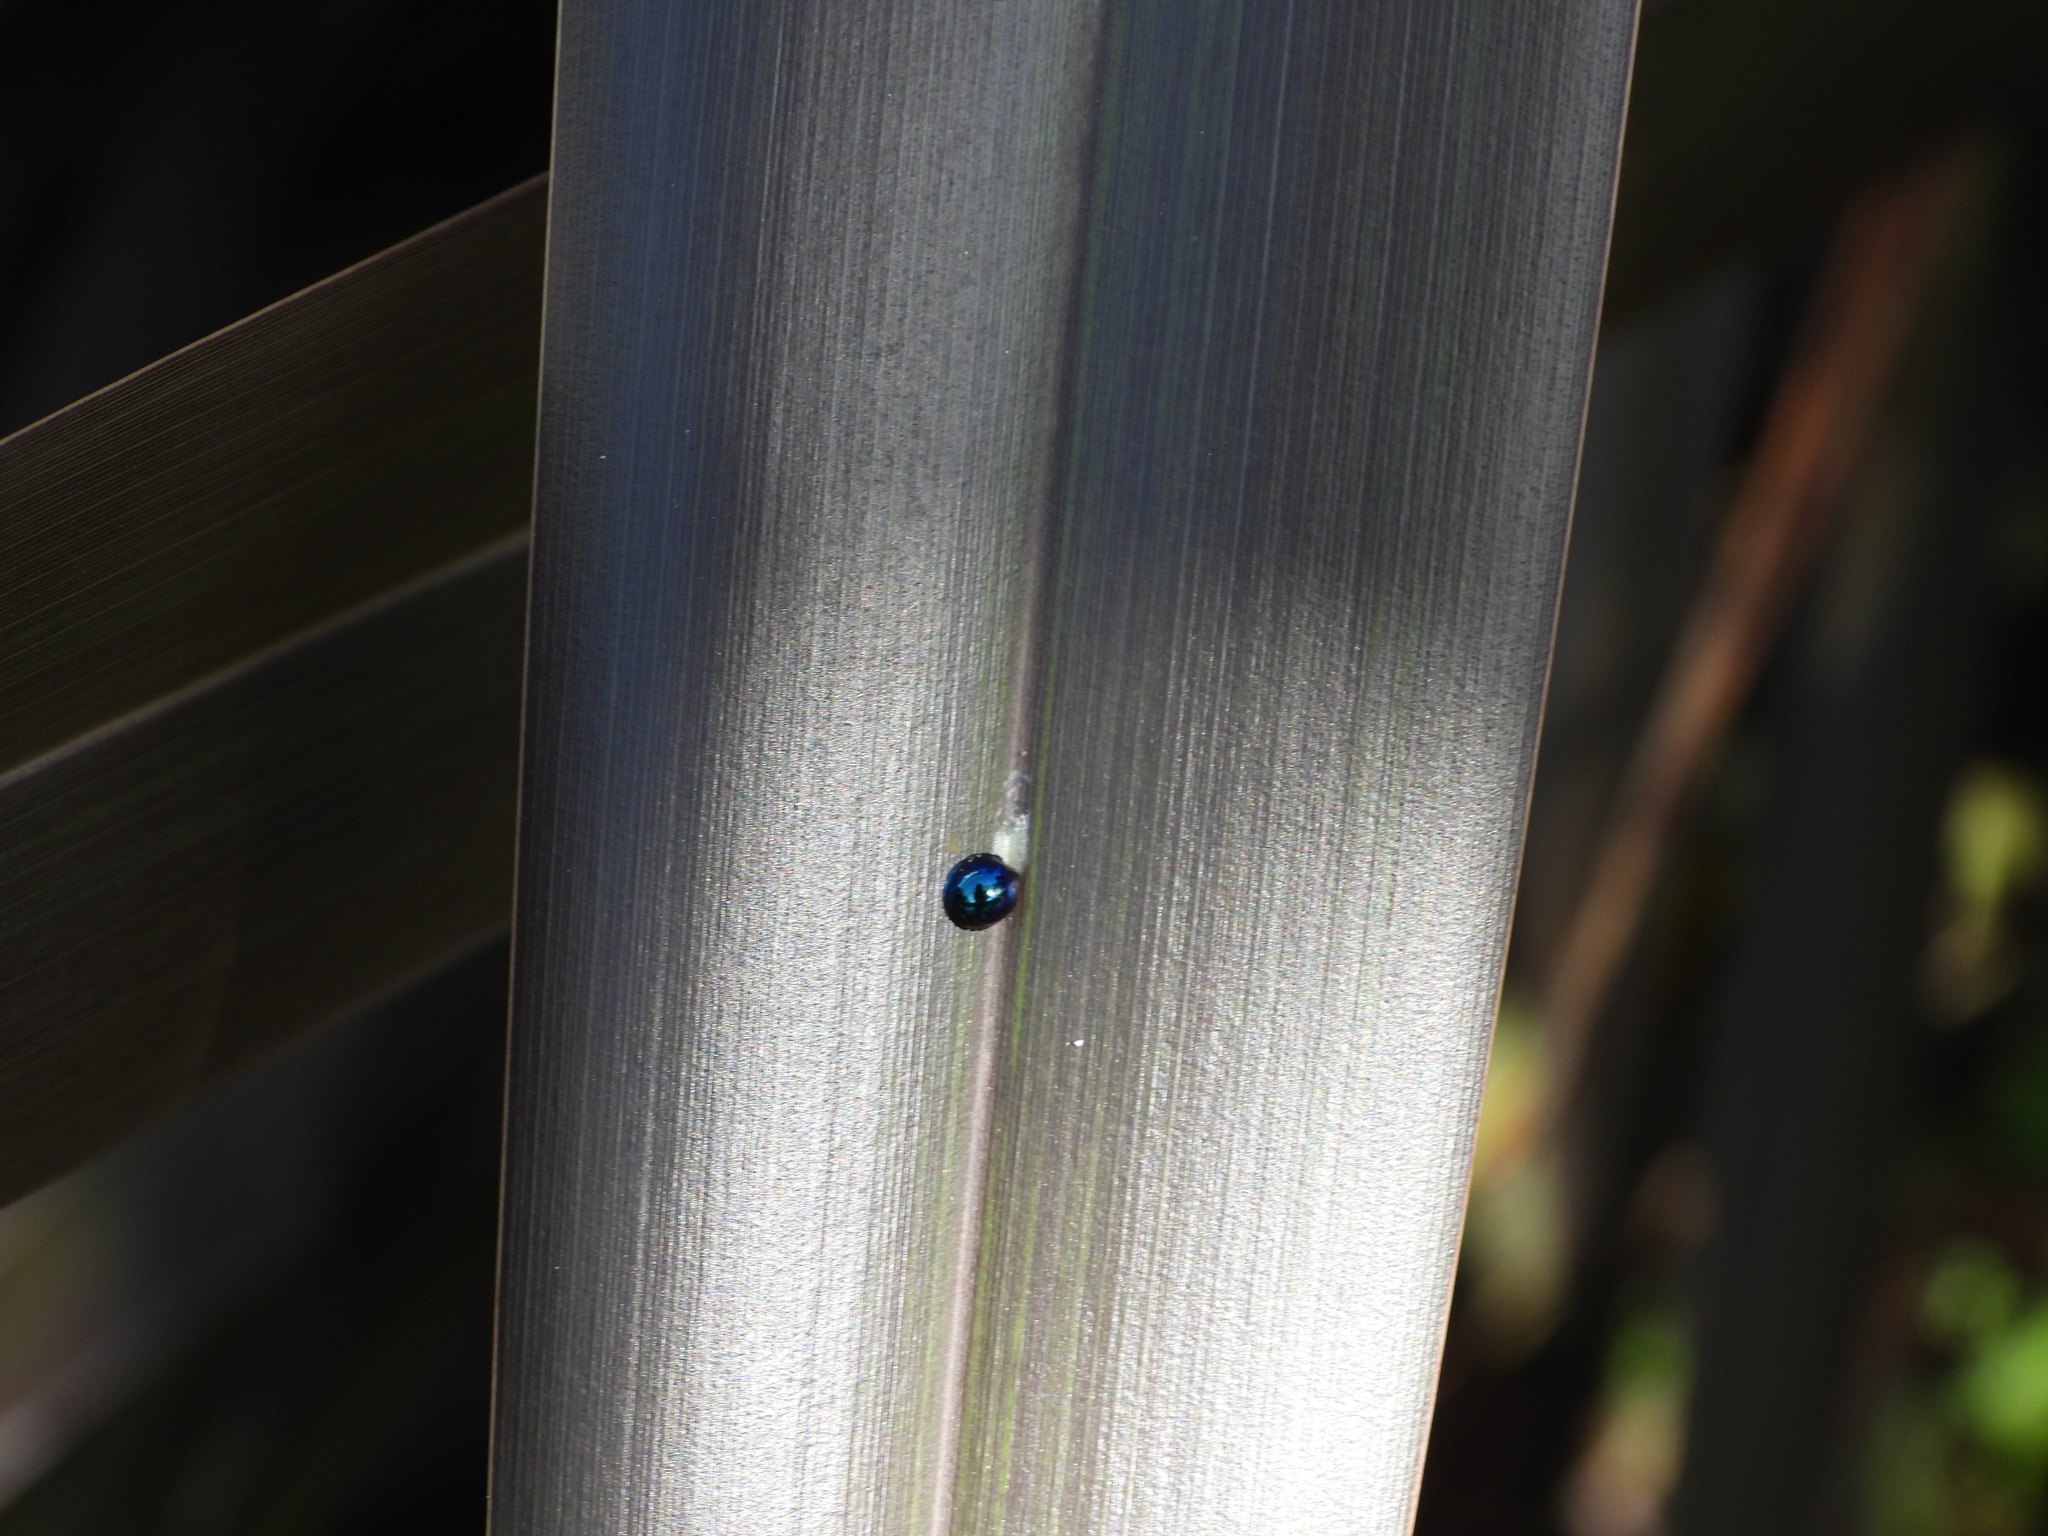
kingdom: Animalia
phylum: Arthropoda
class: Insecta
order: Coleoptera
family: Coccinellidae
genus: Halmus
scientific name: Halmus chalybeus
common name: Steel blue ladybird beetle
